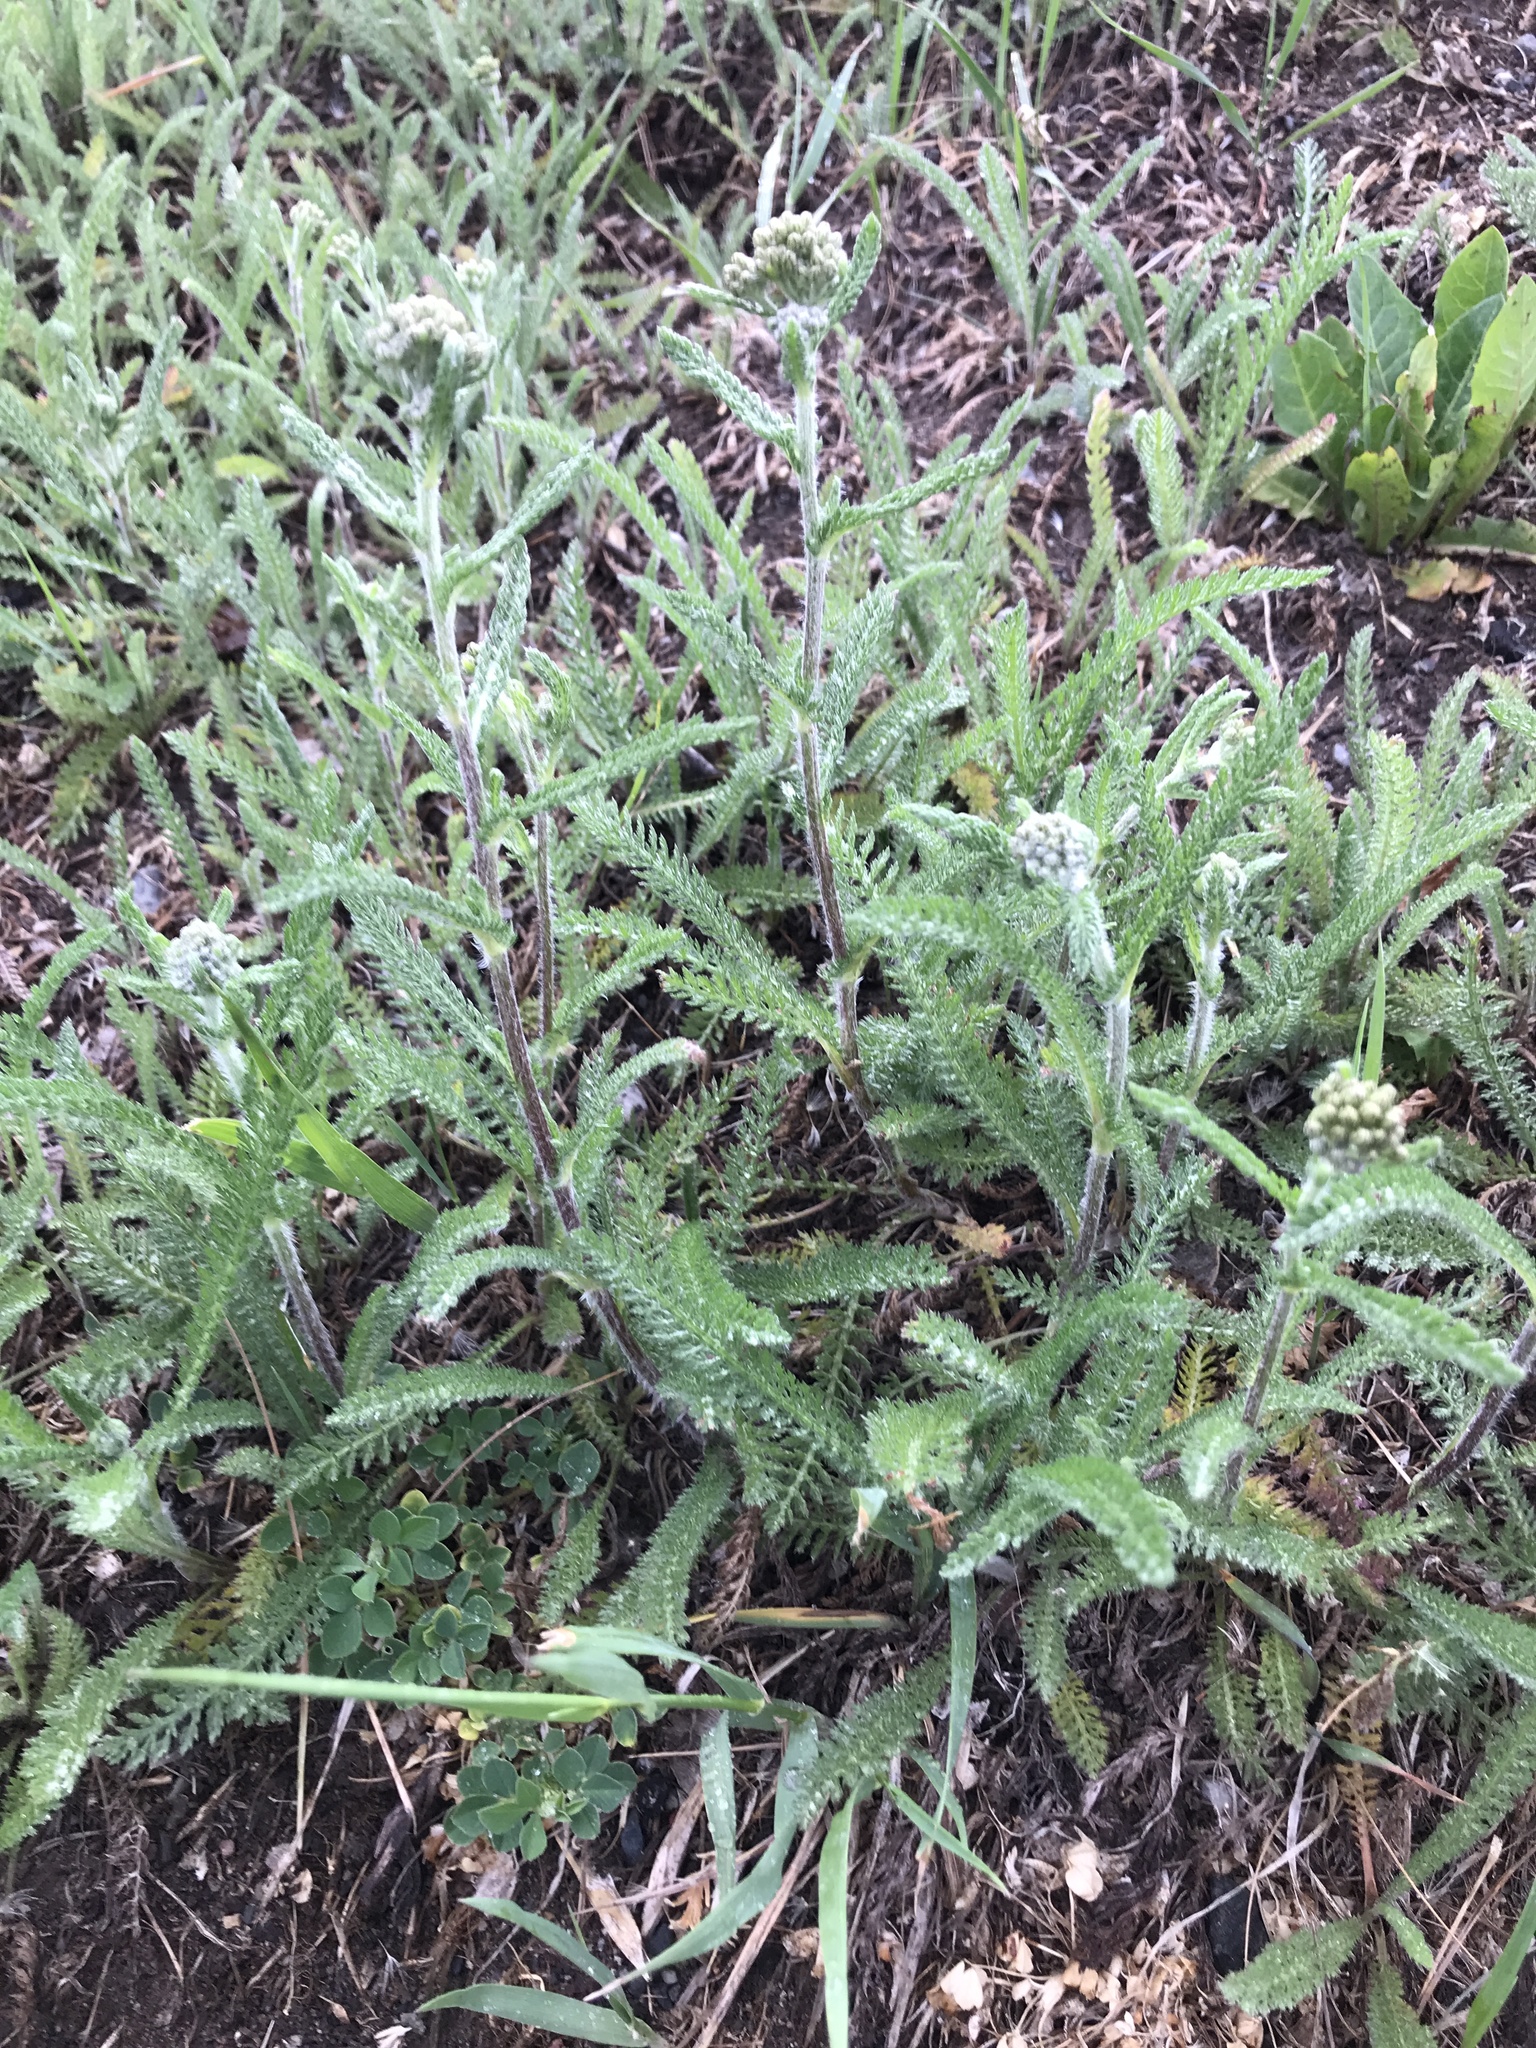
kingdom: Plantae
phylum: Tracheophyta
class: Magnoliopsida
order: Asterales
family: Asteraceae
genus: Achillea
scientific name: Achillea millefolium
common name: Yarrow
